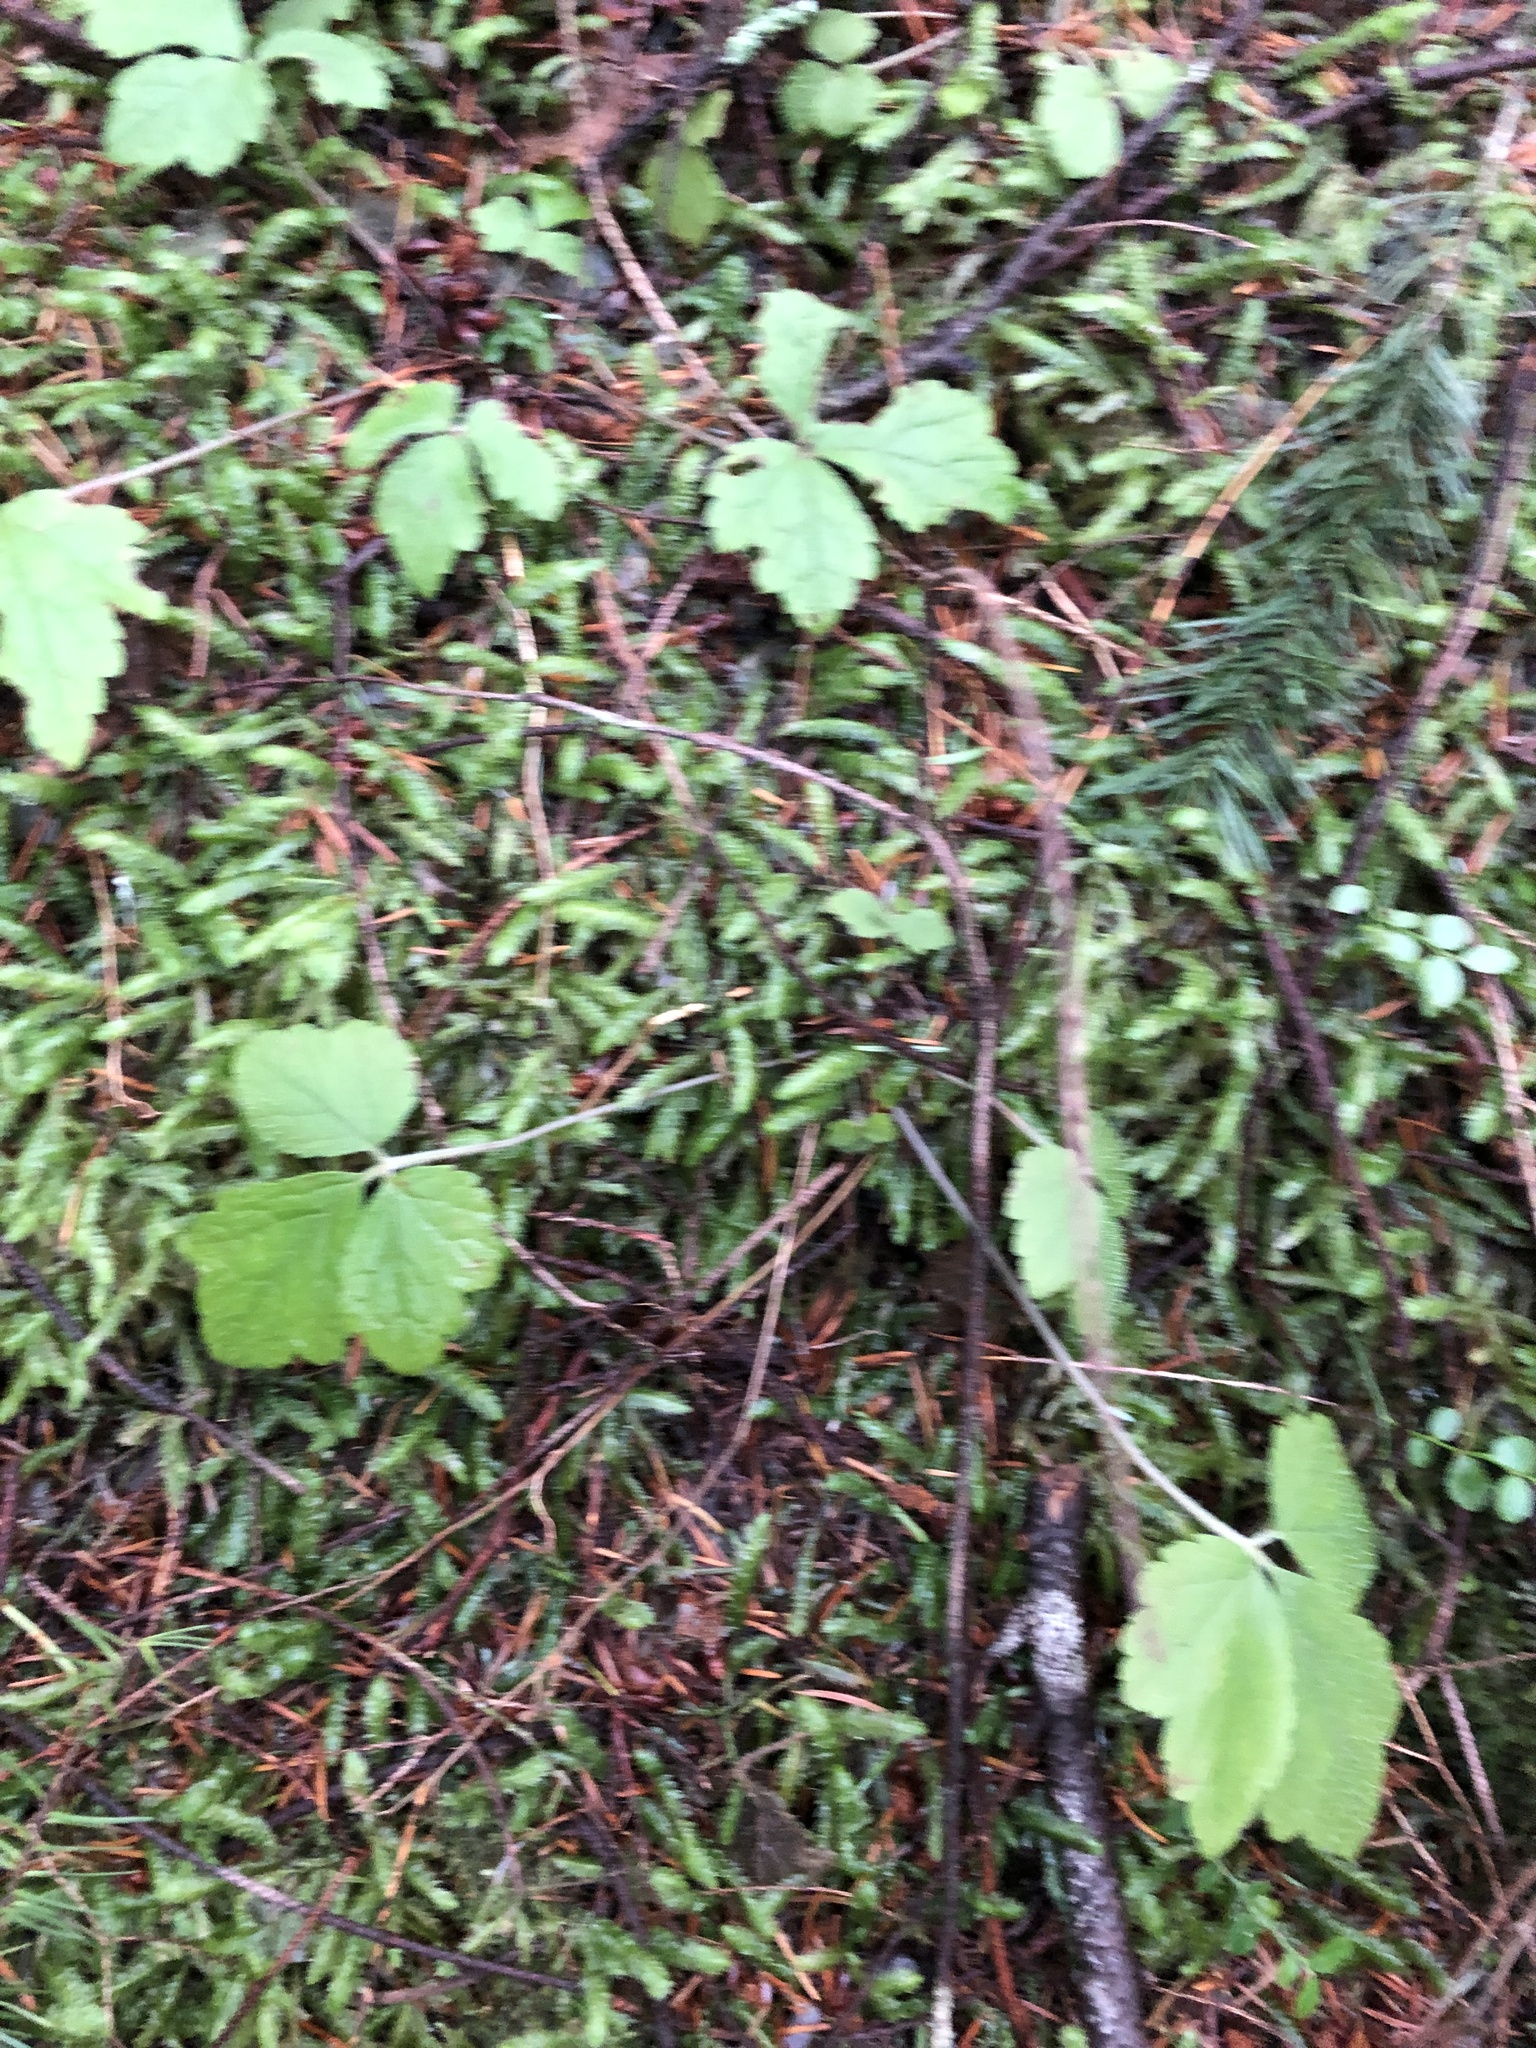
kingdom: Plantae
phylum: Tracheophyta
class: Magnoliopsida
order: Saxifragales
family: Saxifragaceae
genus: Tiarella
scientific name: Tiarella trifoliata
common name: Sugar-scoop
